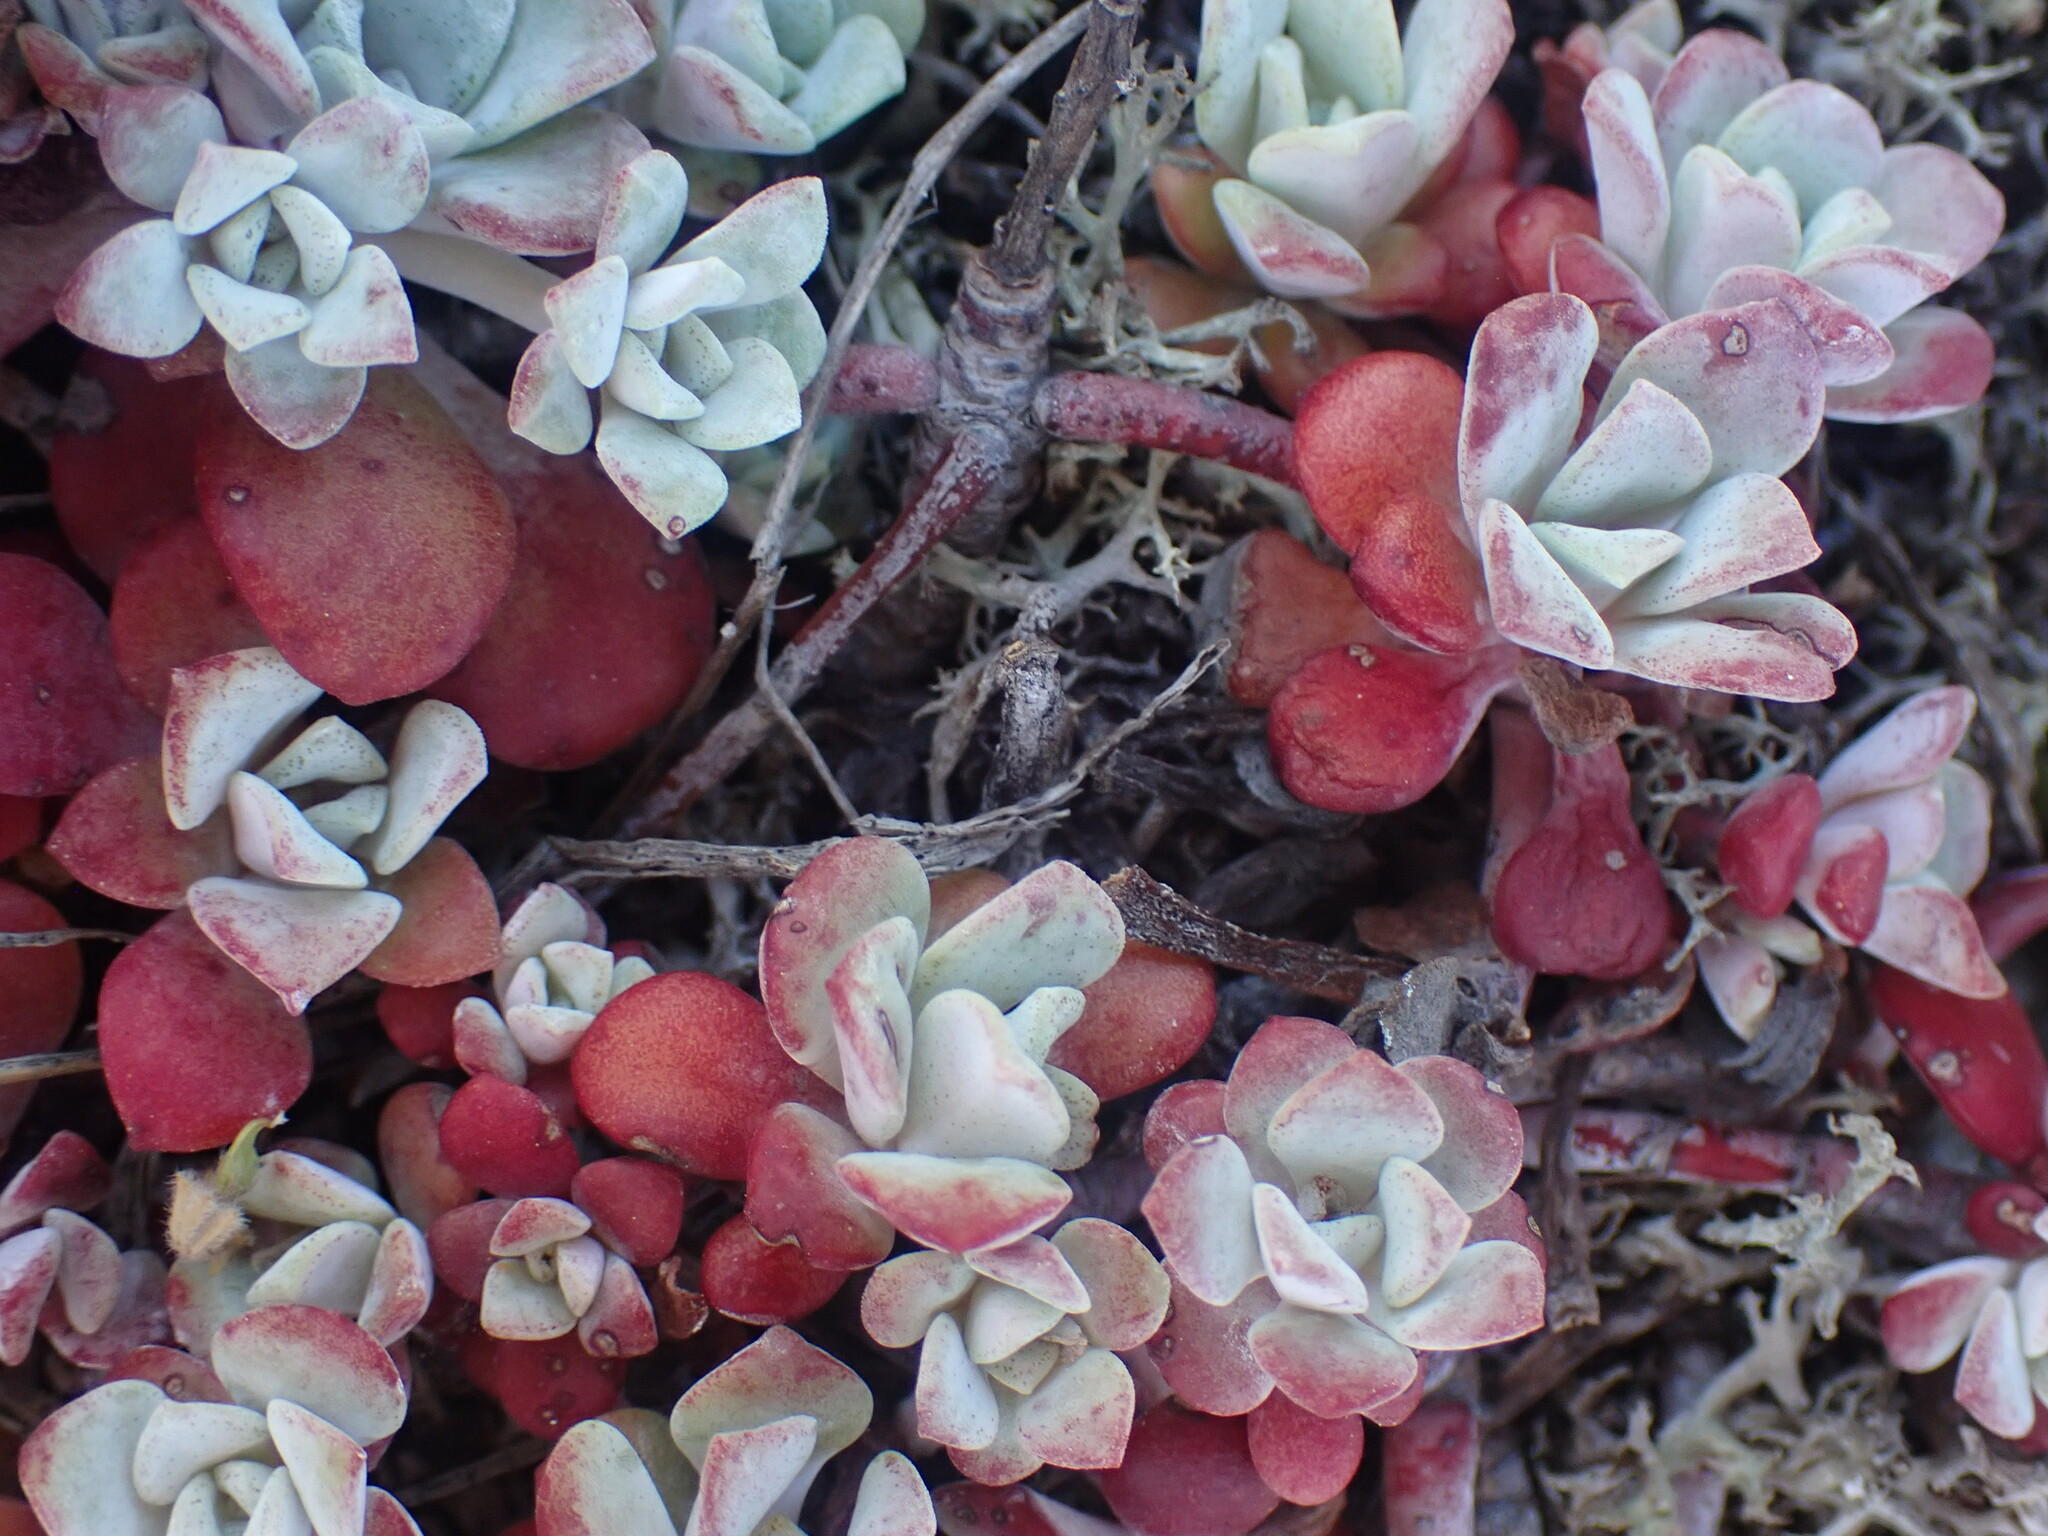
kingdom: Plantae
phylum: Tracheophyta
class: Magnoliopsida
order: Saxifragales
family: Crassulaceae
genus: Sedum
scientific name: Sedum spathulifolium
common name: Colorado stonecrop
